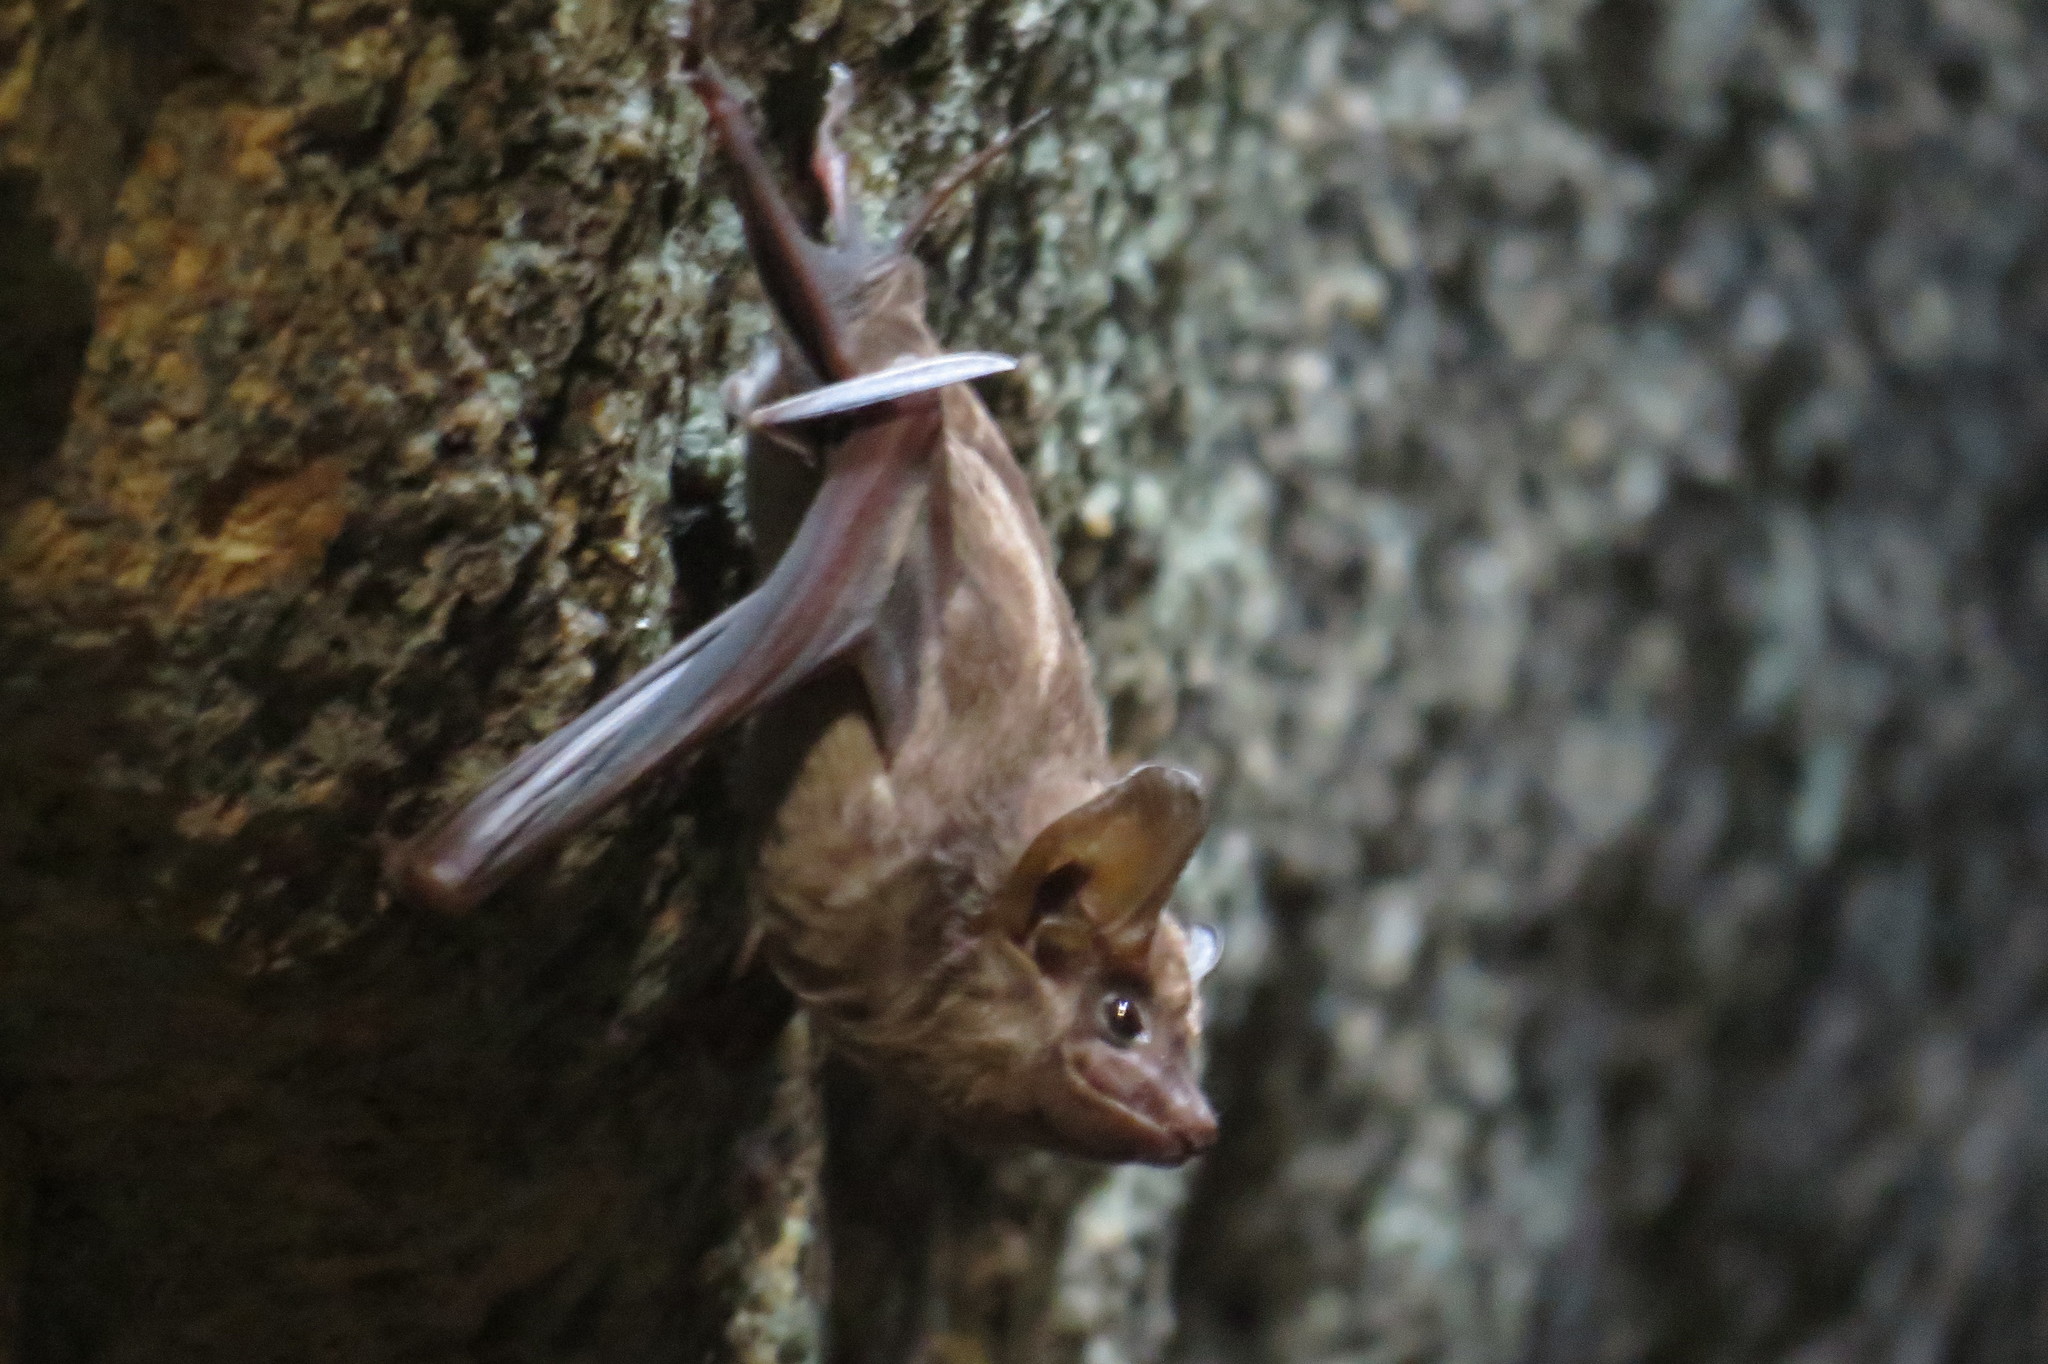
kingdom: Animalia
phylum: Chordata
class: Mammalia
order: Chiroptera
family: Emballonuridae
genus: Taphozous
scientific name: Taphozous australis
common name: Coastal tomb bat
